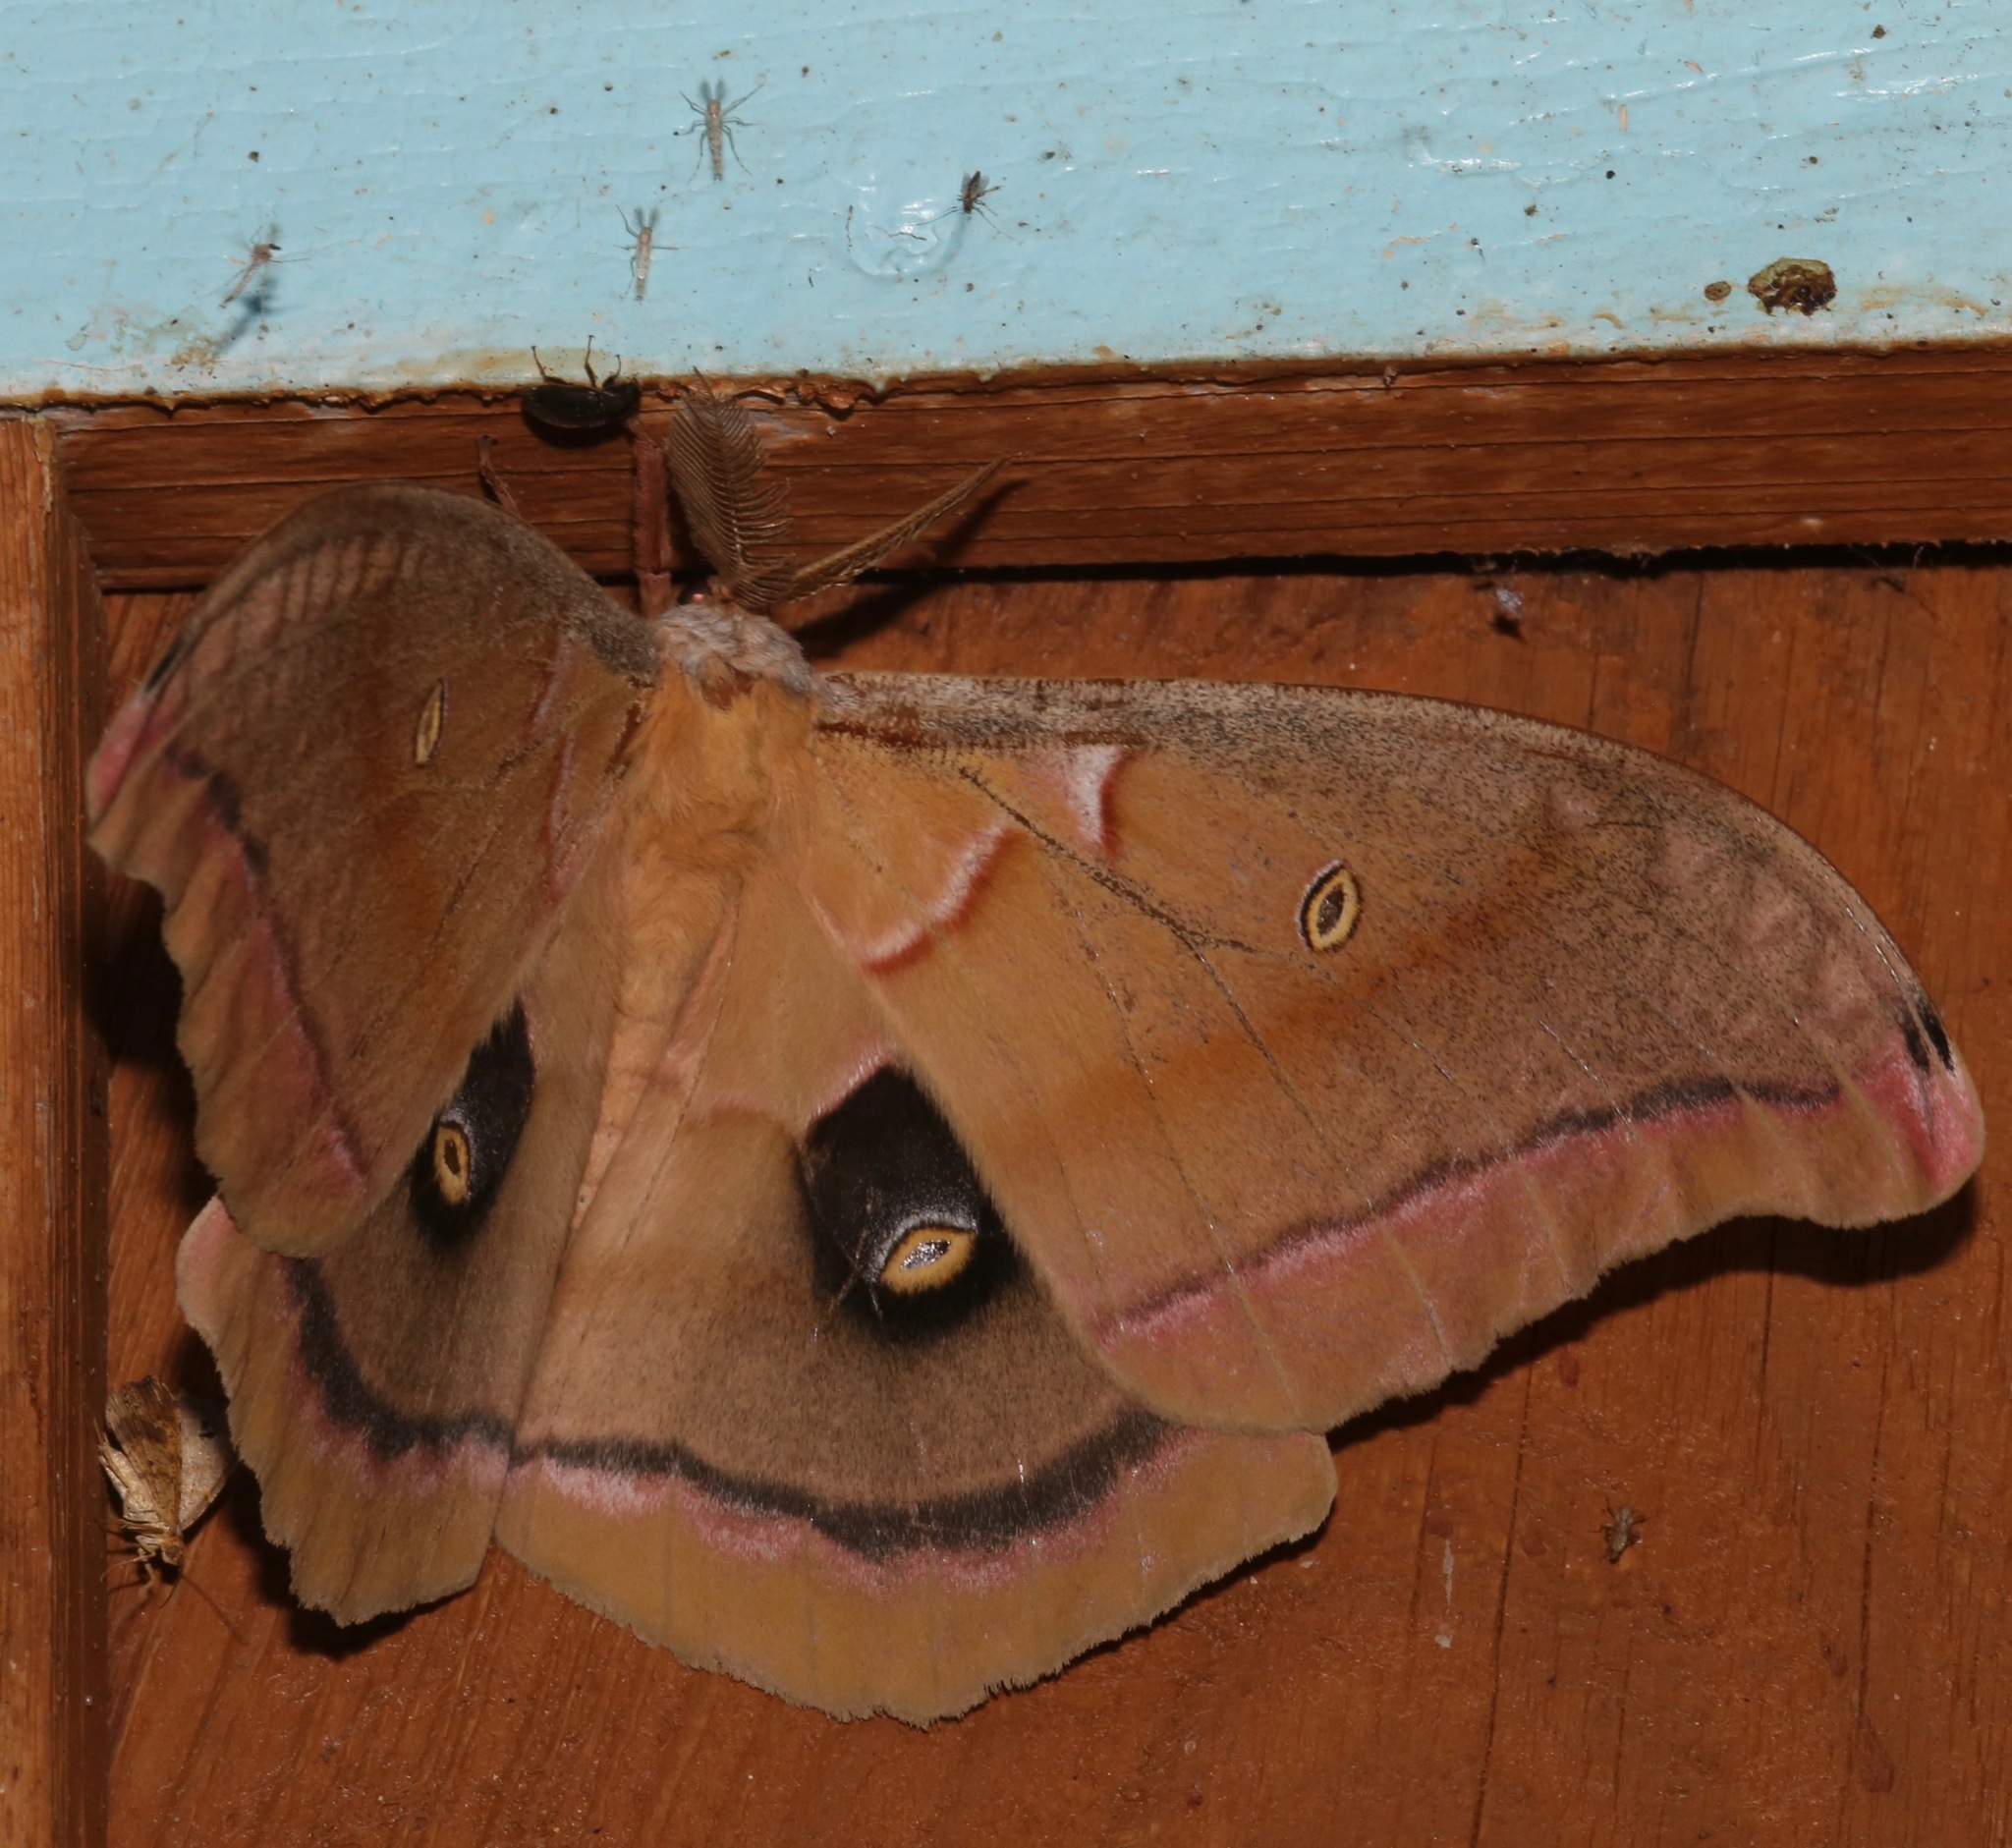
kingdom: Animalia
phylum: Arthropoda
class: Insecta
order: Lepidoptera
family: Saturniidae
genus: Antheraea
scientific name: Antheraea polyphemus
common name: Polyphemus moth
